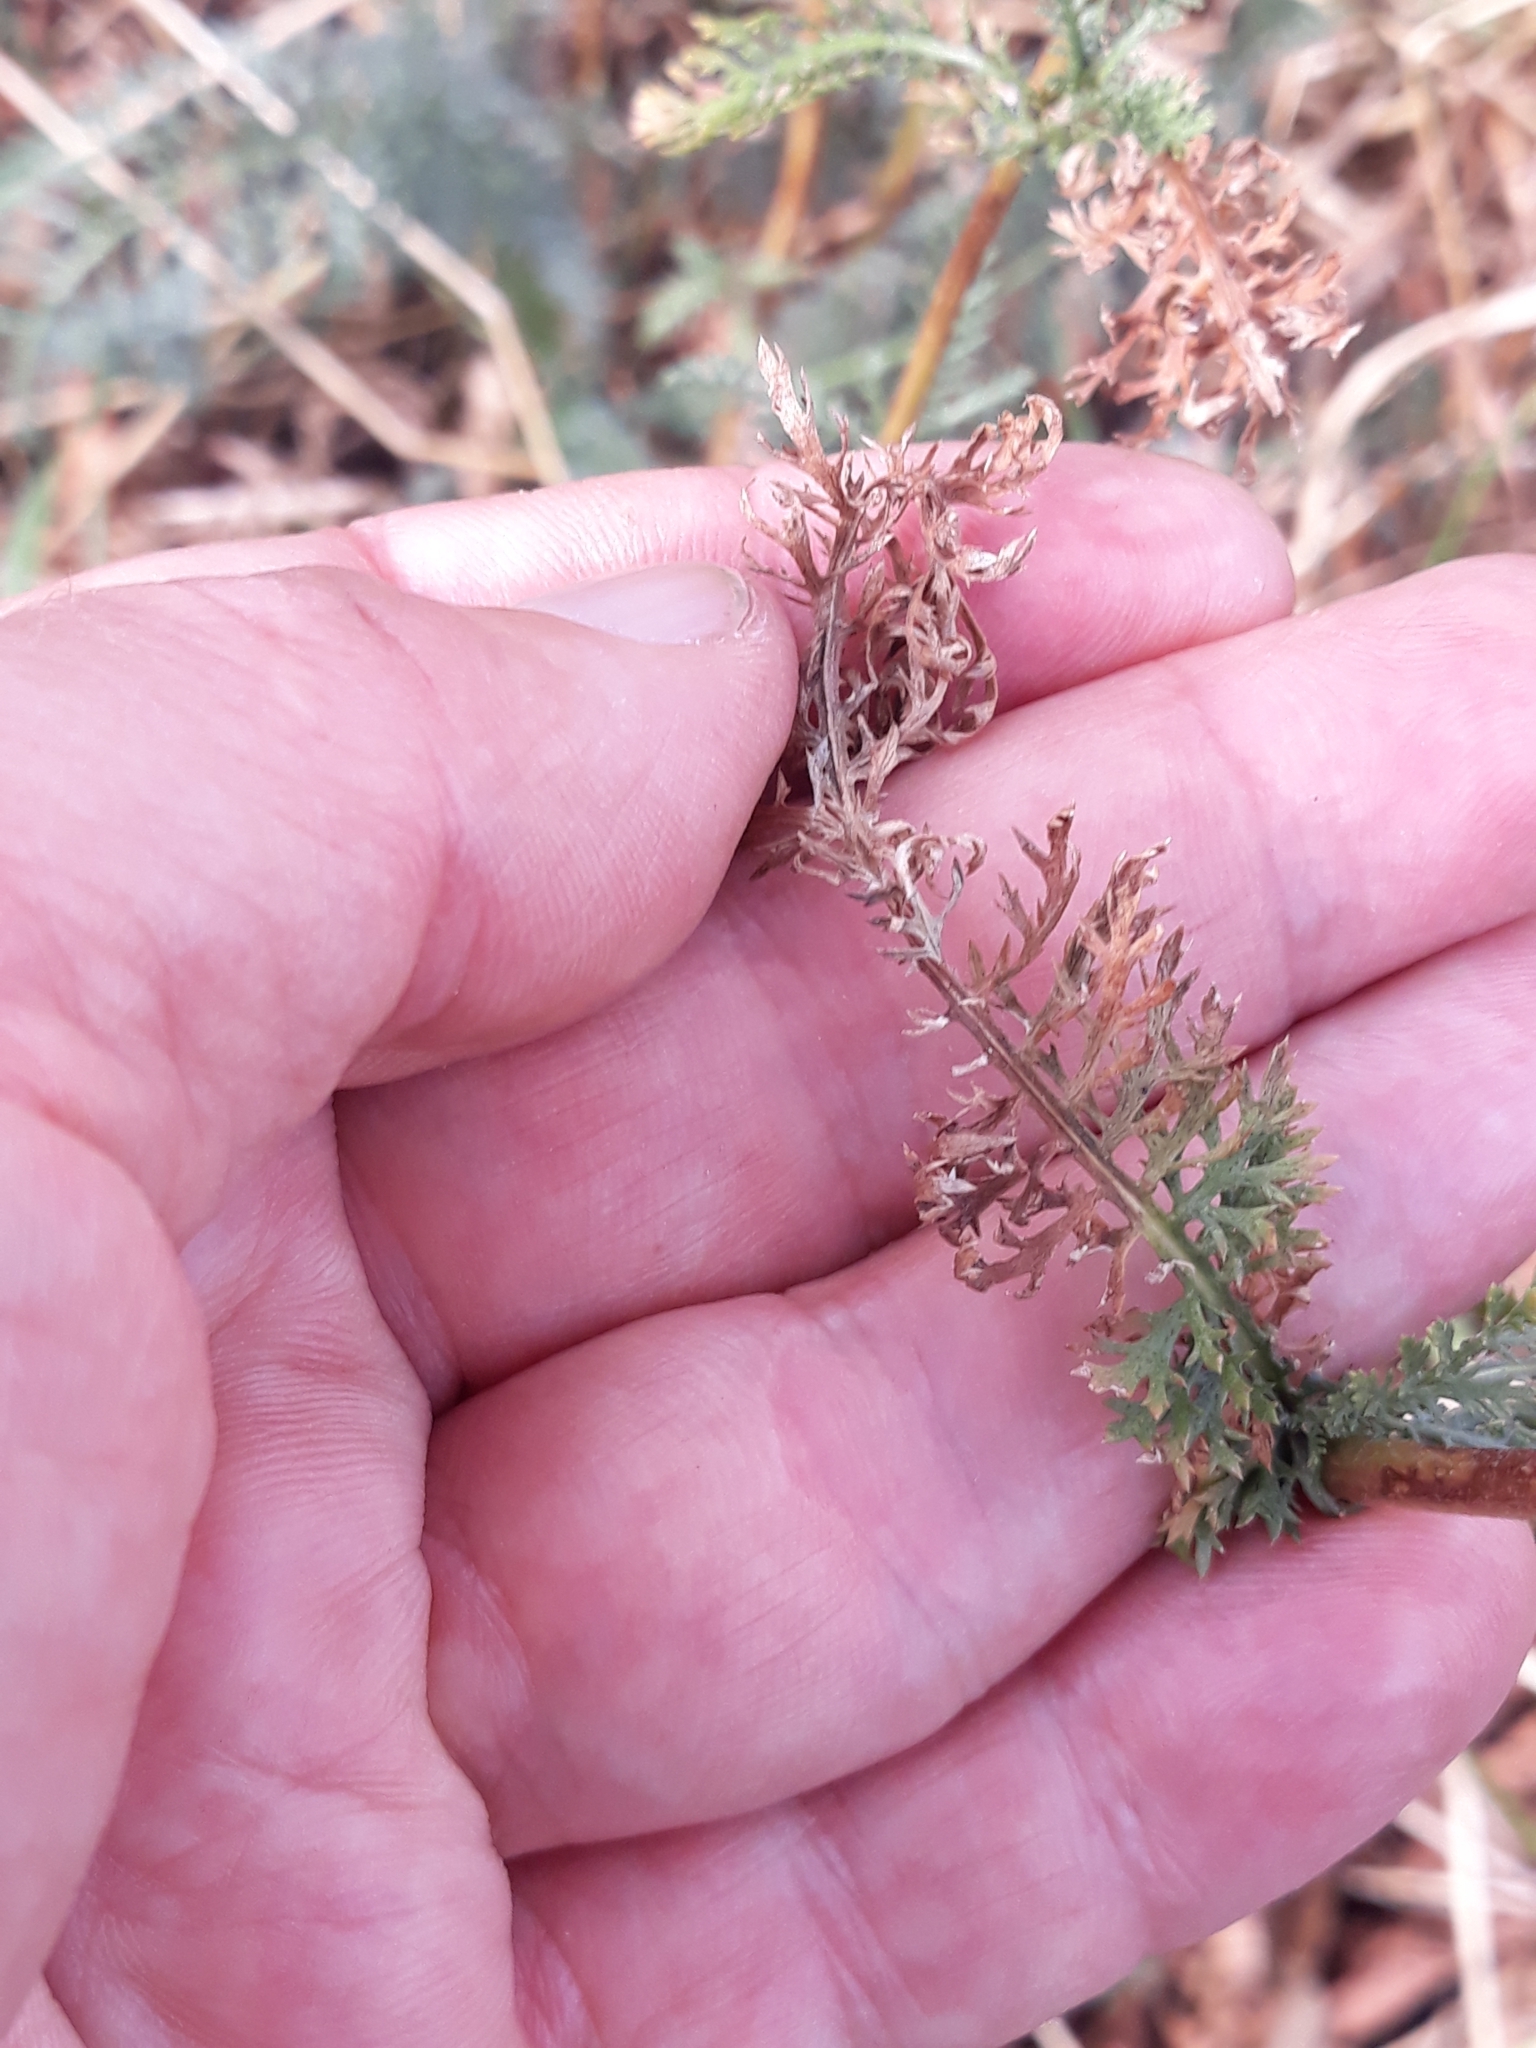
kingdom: Plantae
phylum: Tracheophyta
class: Magnoliopsida
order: Asterales
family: Asteraceae
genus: Achillea
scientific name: Achillea millefolium
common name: Yarrow
